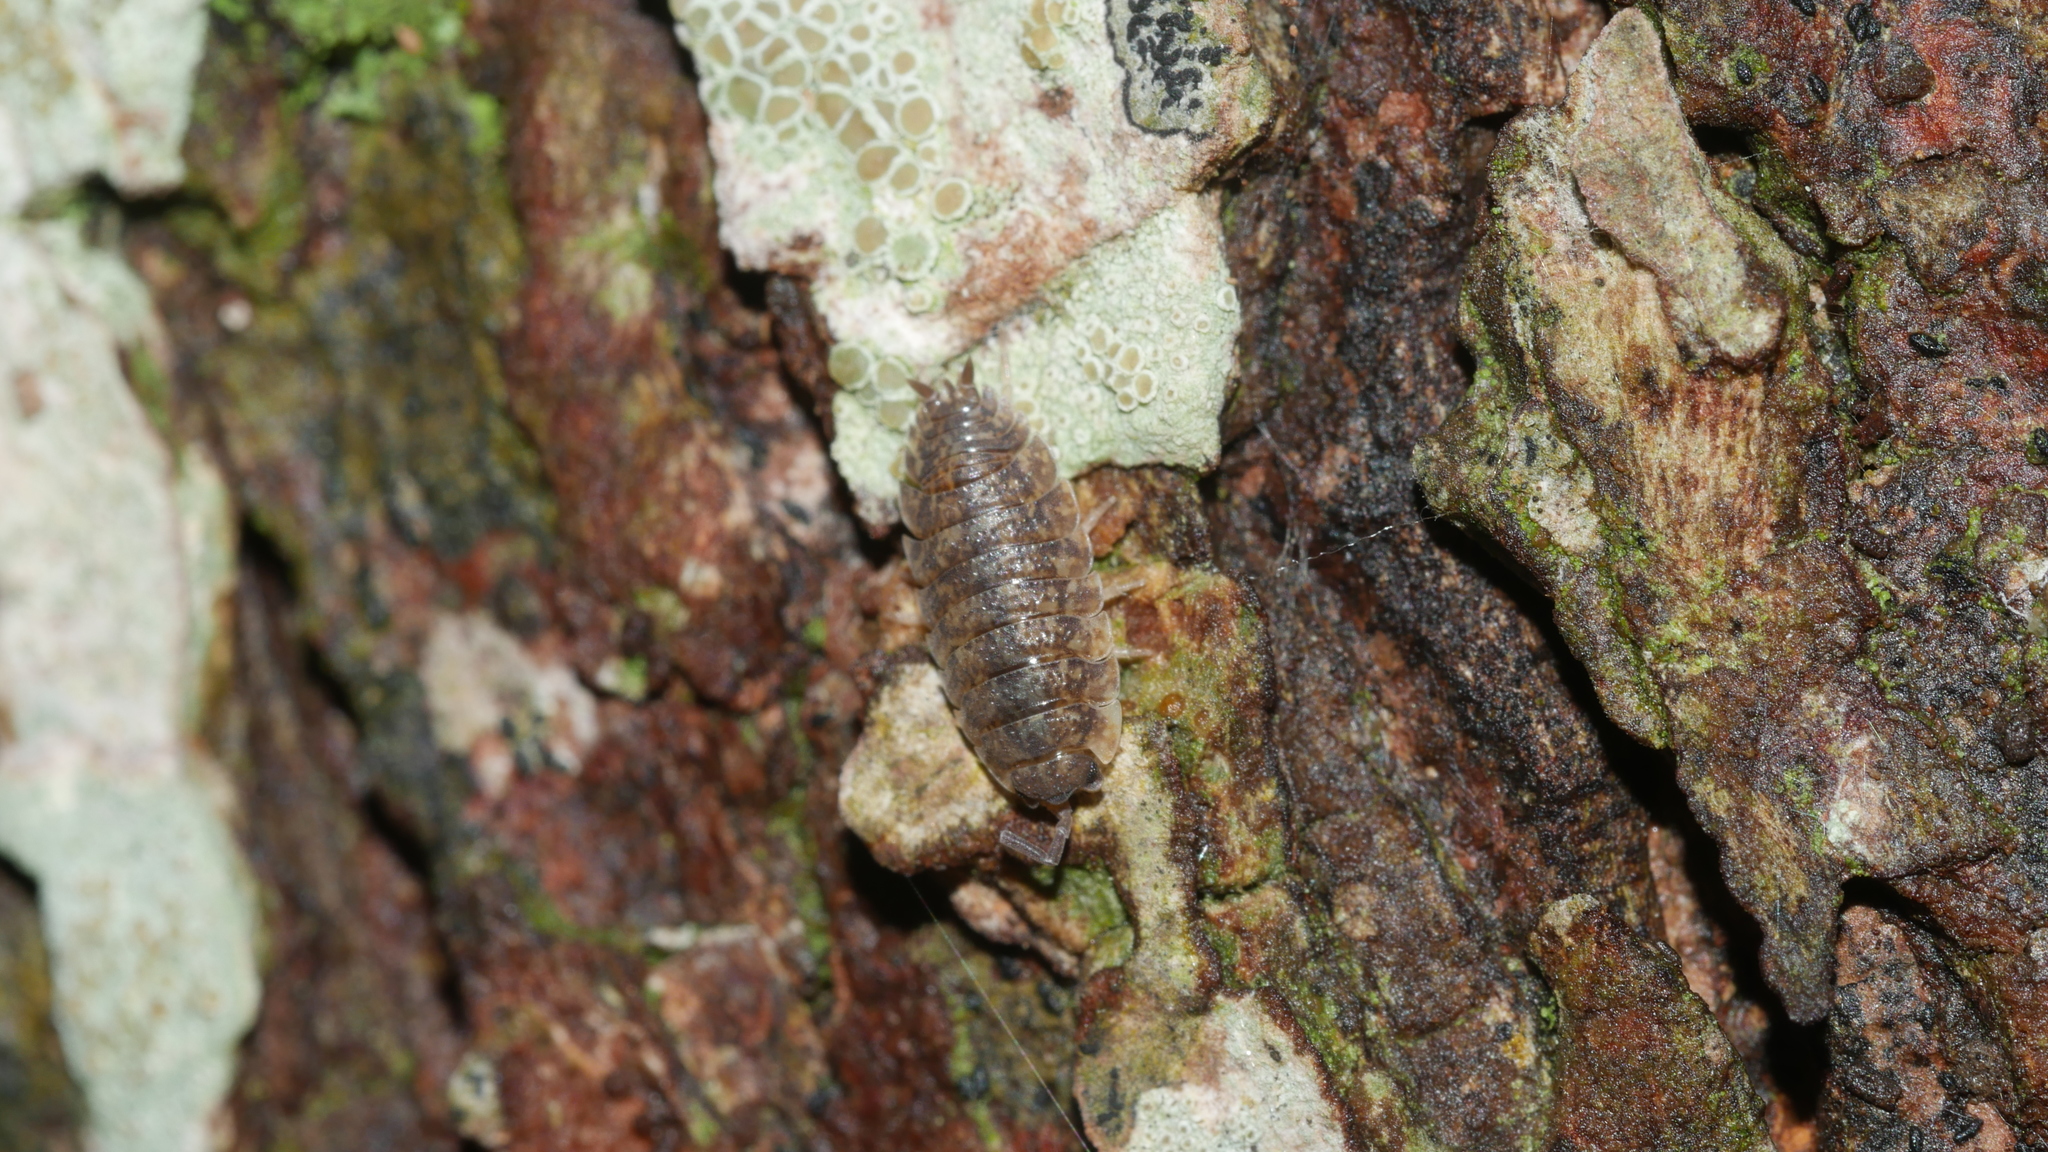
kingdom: Animalia
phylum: Arthropoda
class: Malacostraca
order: Isopoda
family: Porcellionidae
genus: Porcellio
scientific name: Porcellio scaber
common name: Common rough woodlouse
